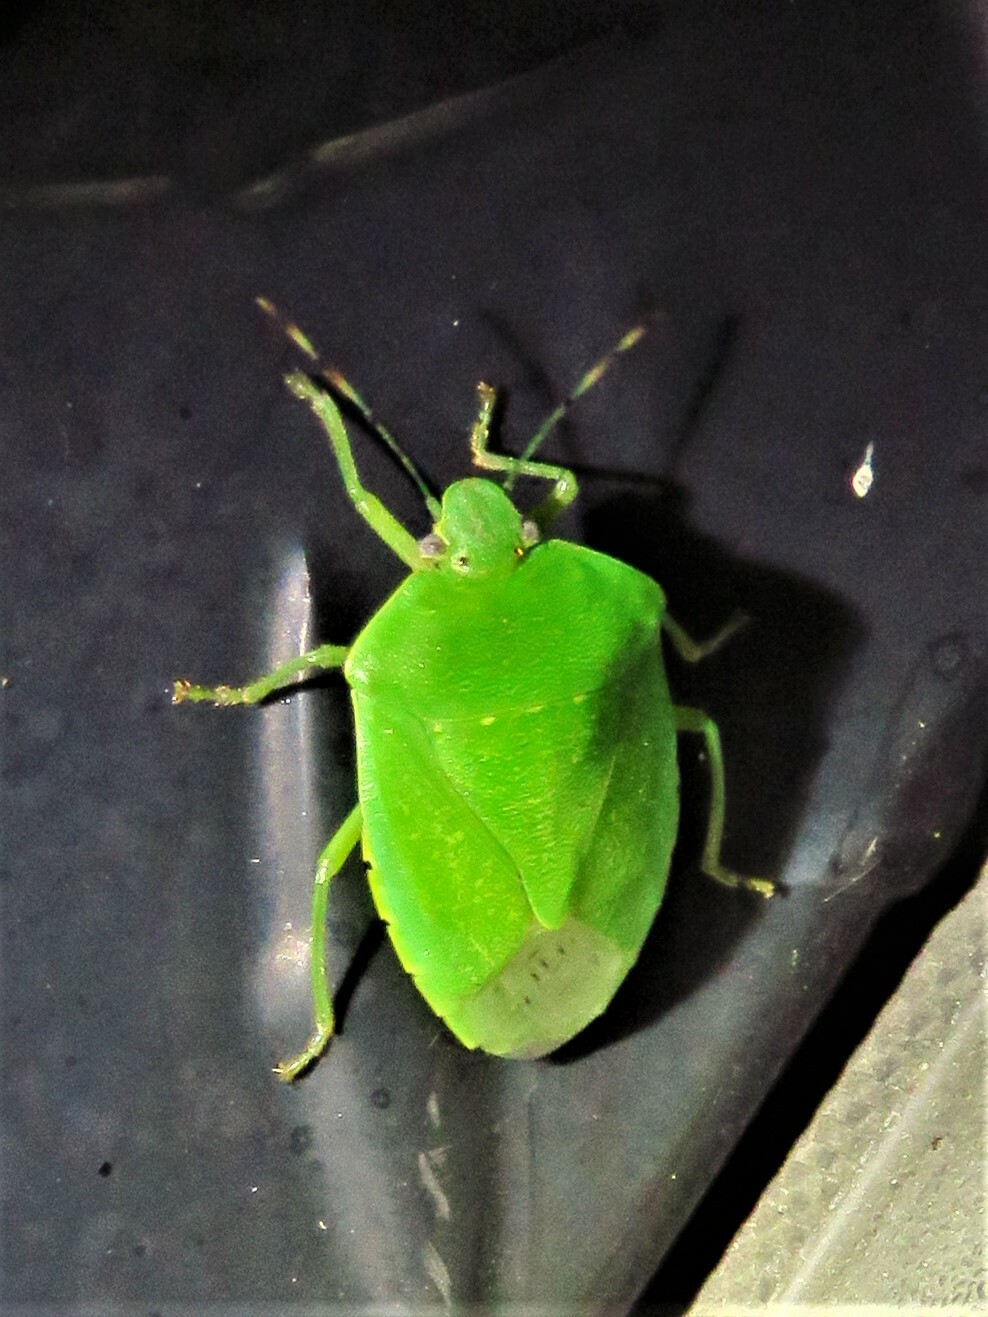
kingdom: Animalia
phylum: Arthropoda
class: Insecta
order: Hemiptera
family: Pentatomidae
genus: Chinavia
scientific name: Chinavia hilaris
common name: Green stink bug
